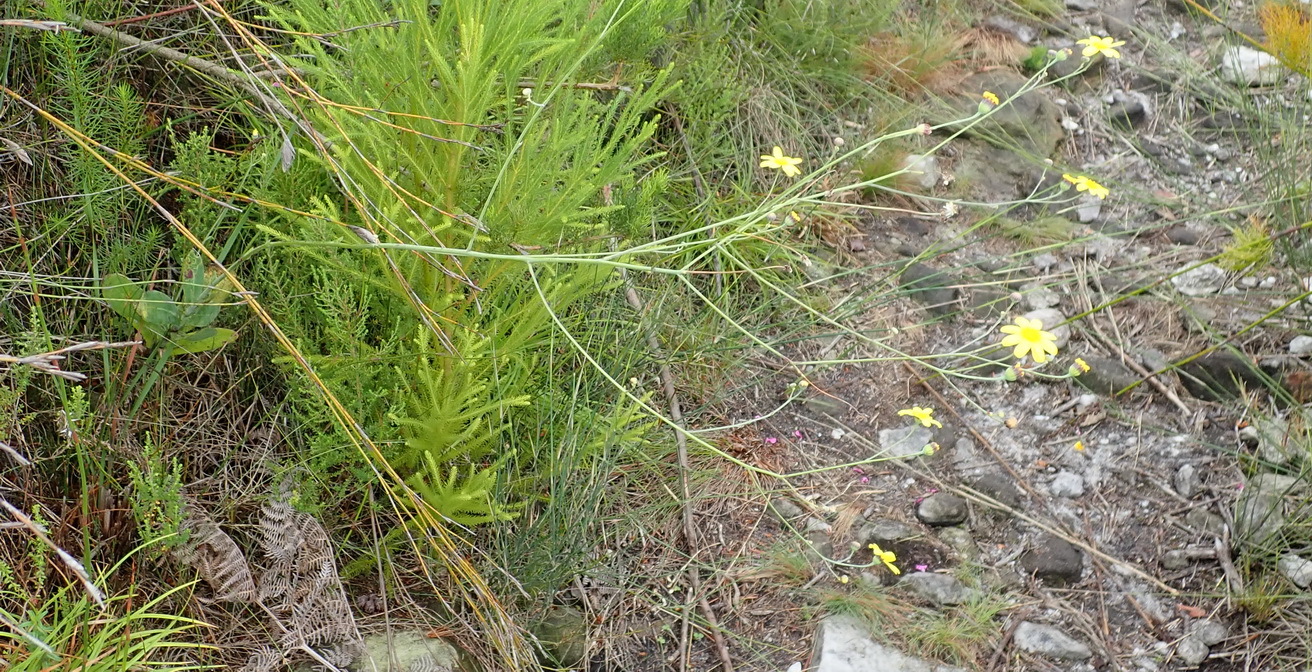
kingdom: Plantae
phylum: Tracheophyta
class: Magnoliopsida
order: Asterales
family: Asteraceae
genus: Othonna
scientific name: Othonna quinquedentata
